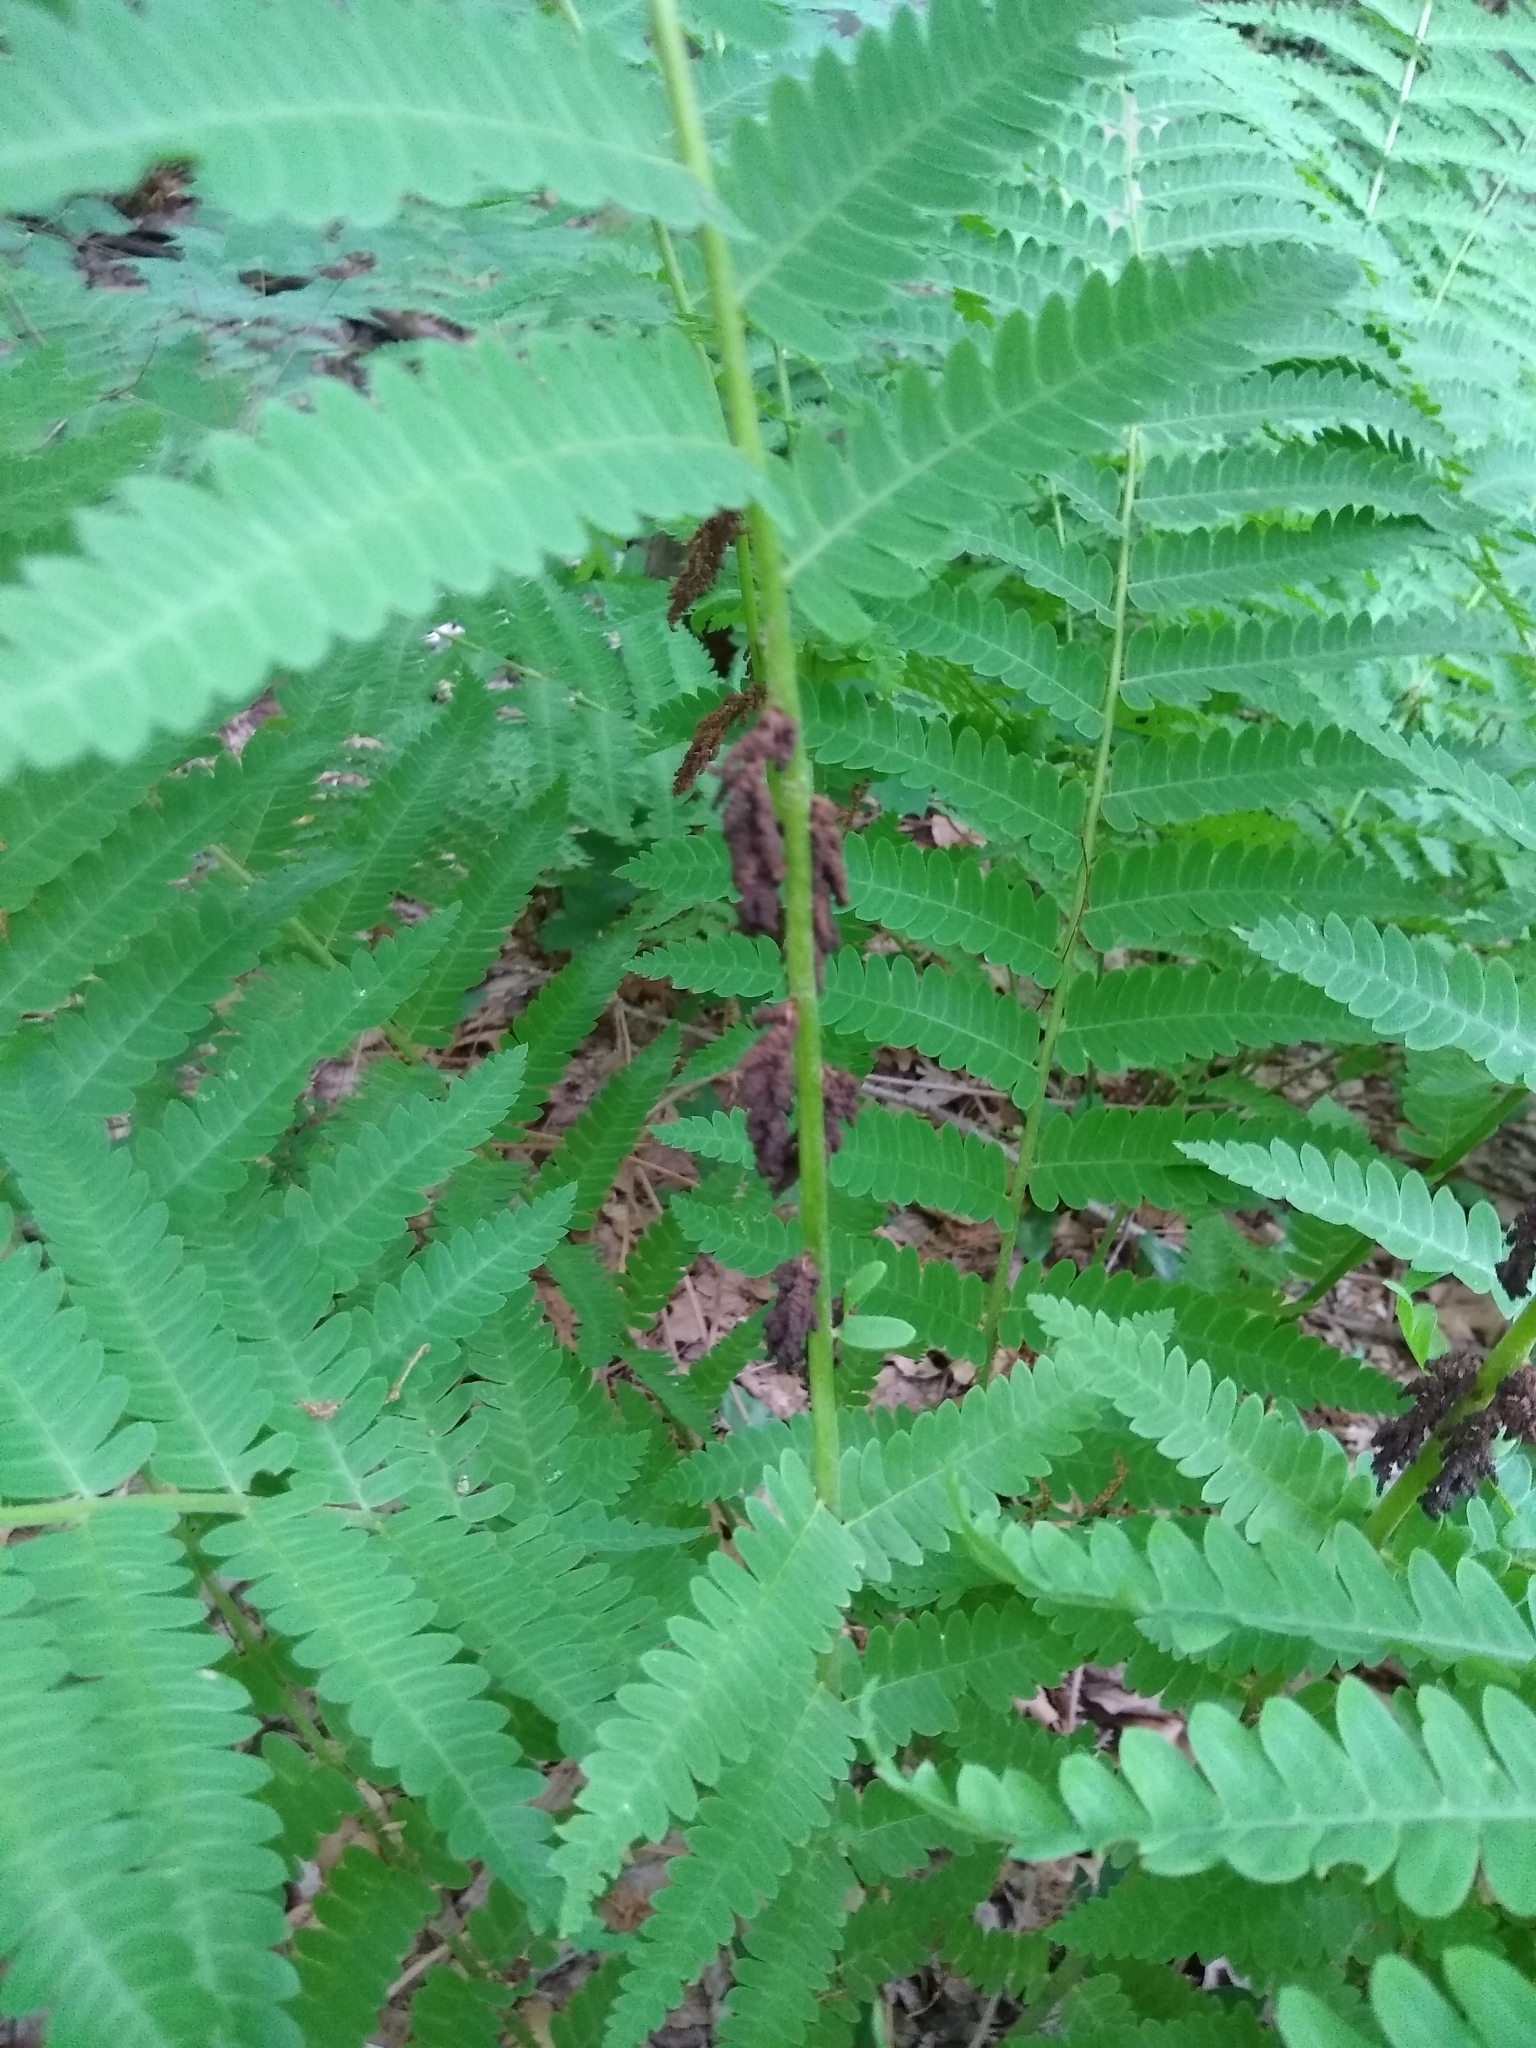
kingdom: Plantae
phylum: Tracheophyta
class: Polypodiopsida
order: Osmundales
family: Osmundaceae
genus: Claytosmunda
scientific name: Claytosmunda claytoniana
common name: Clayton's fern
